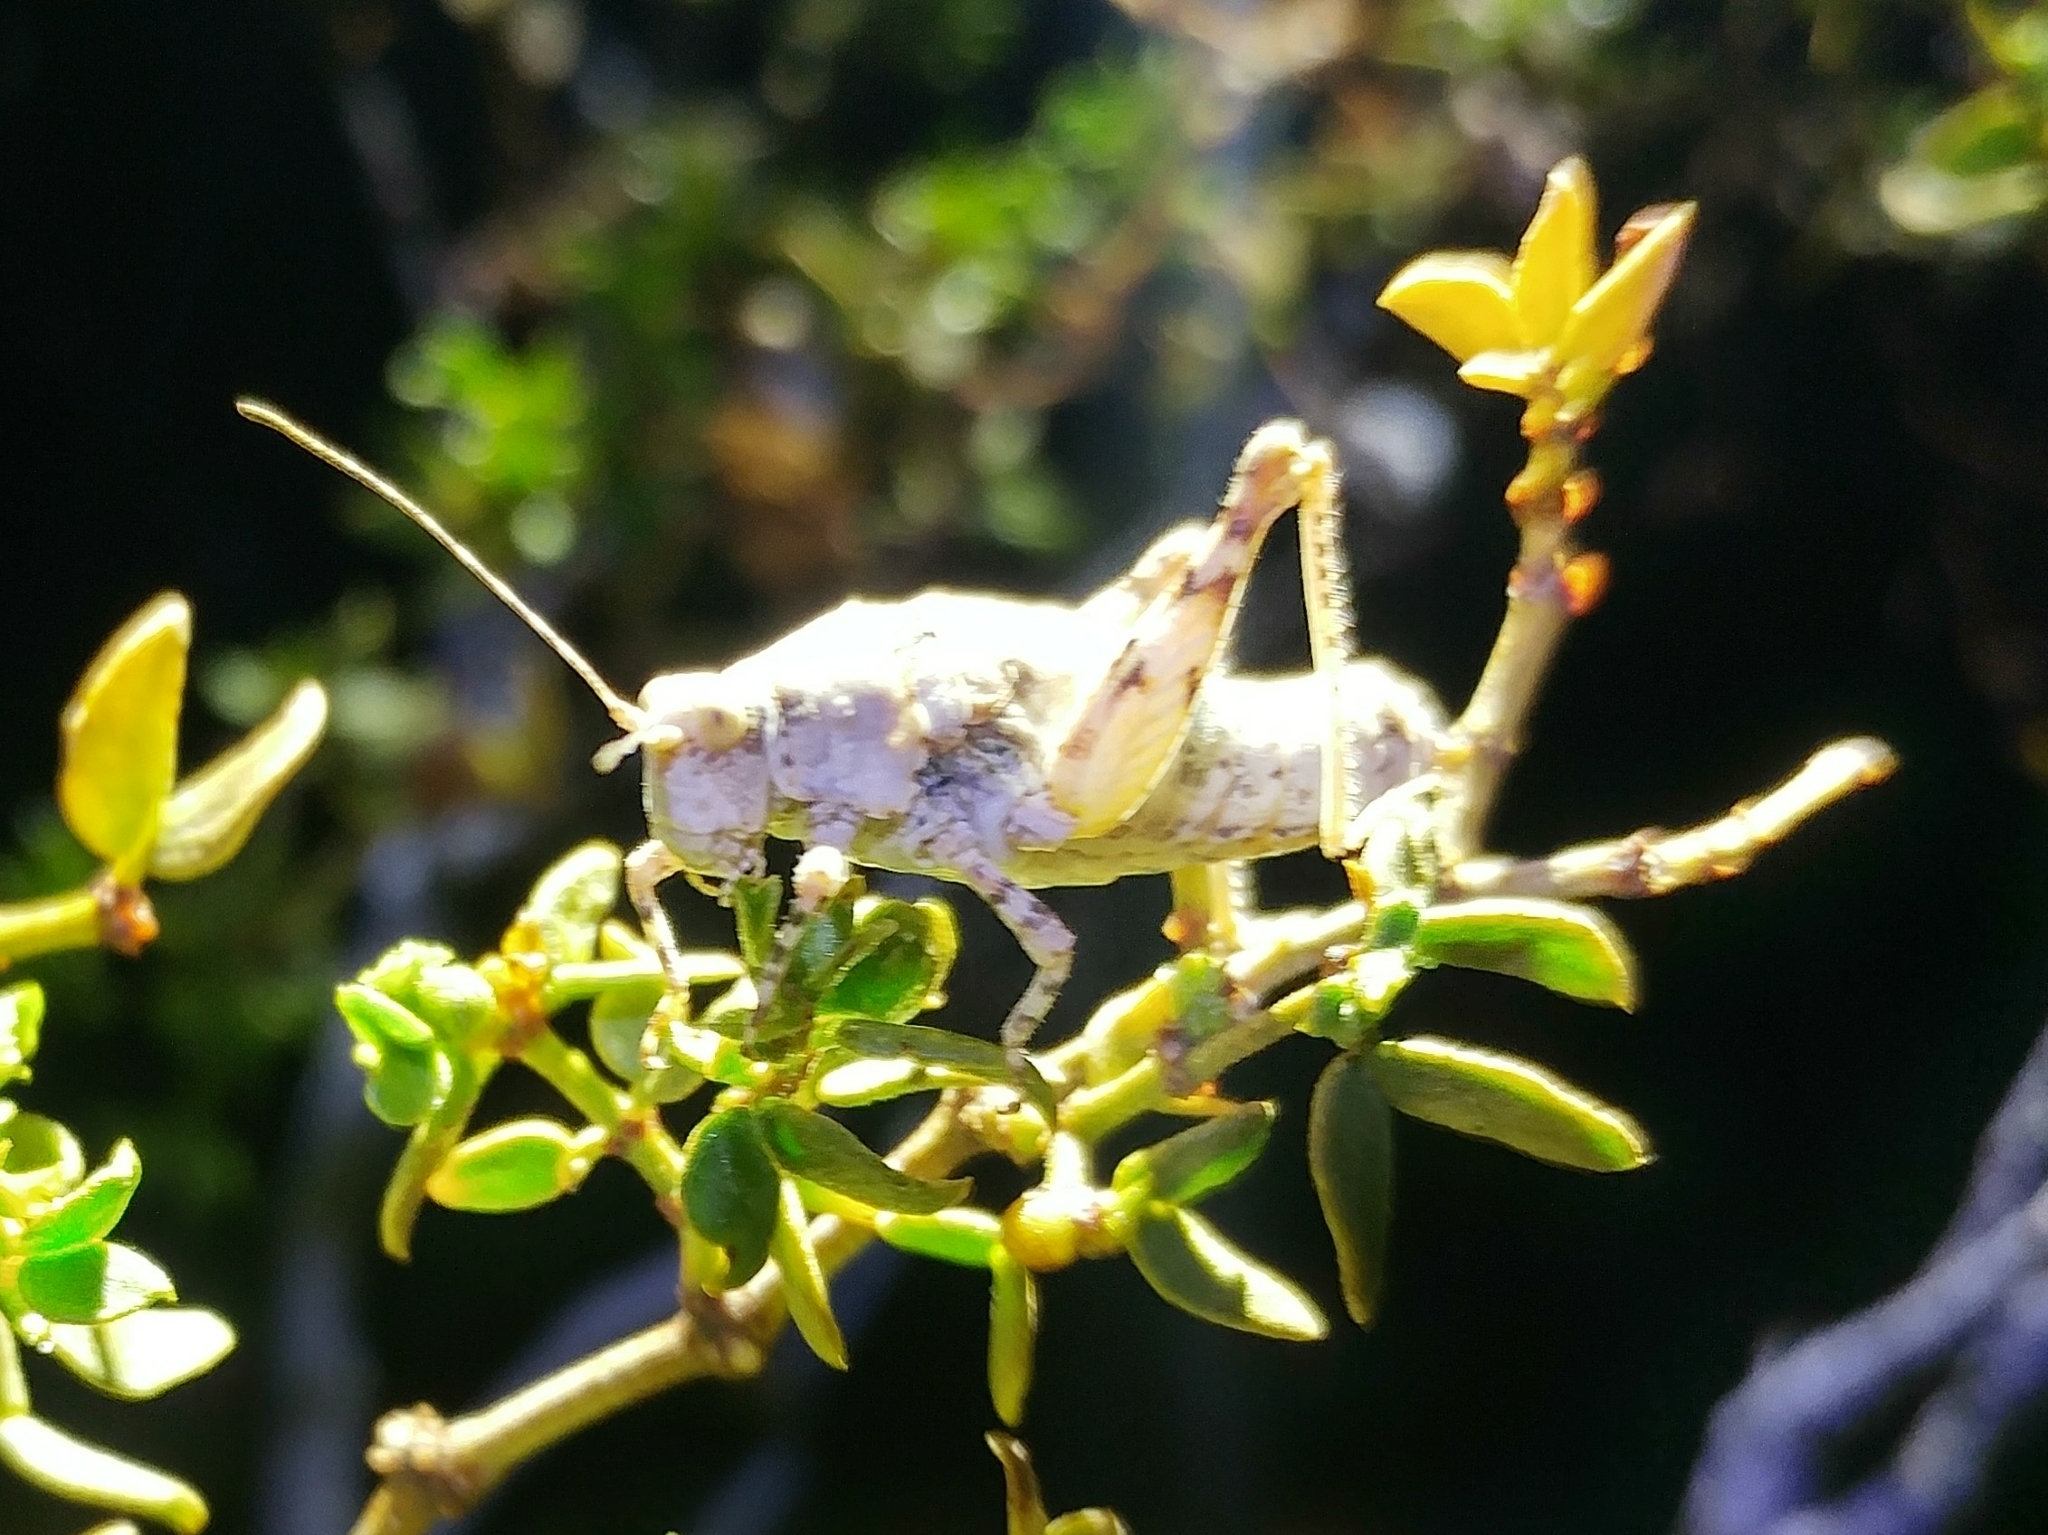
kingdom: Animalia
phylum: Arthropoda
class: Insecta
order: Orthoptera
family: Tanaoceridae
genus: Tanaocerus
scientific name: Tanaocerus koebelei
